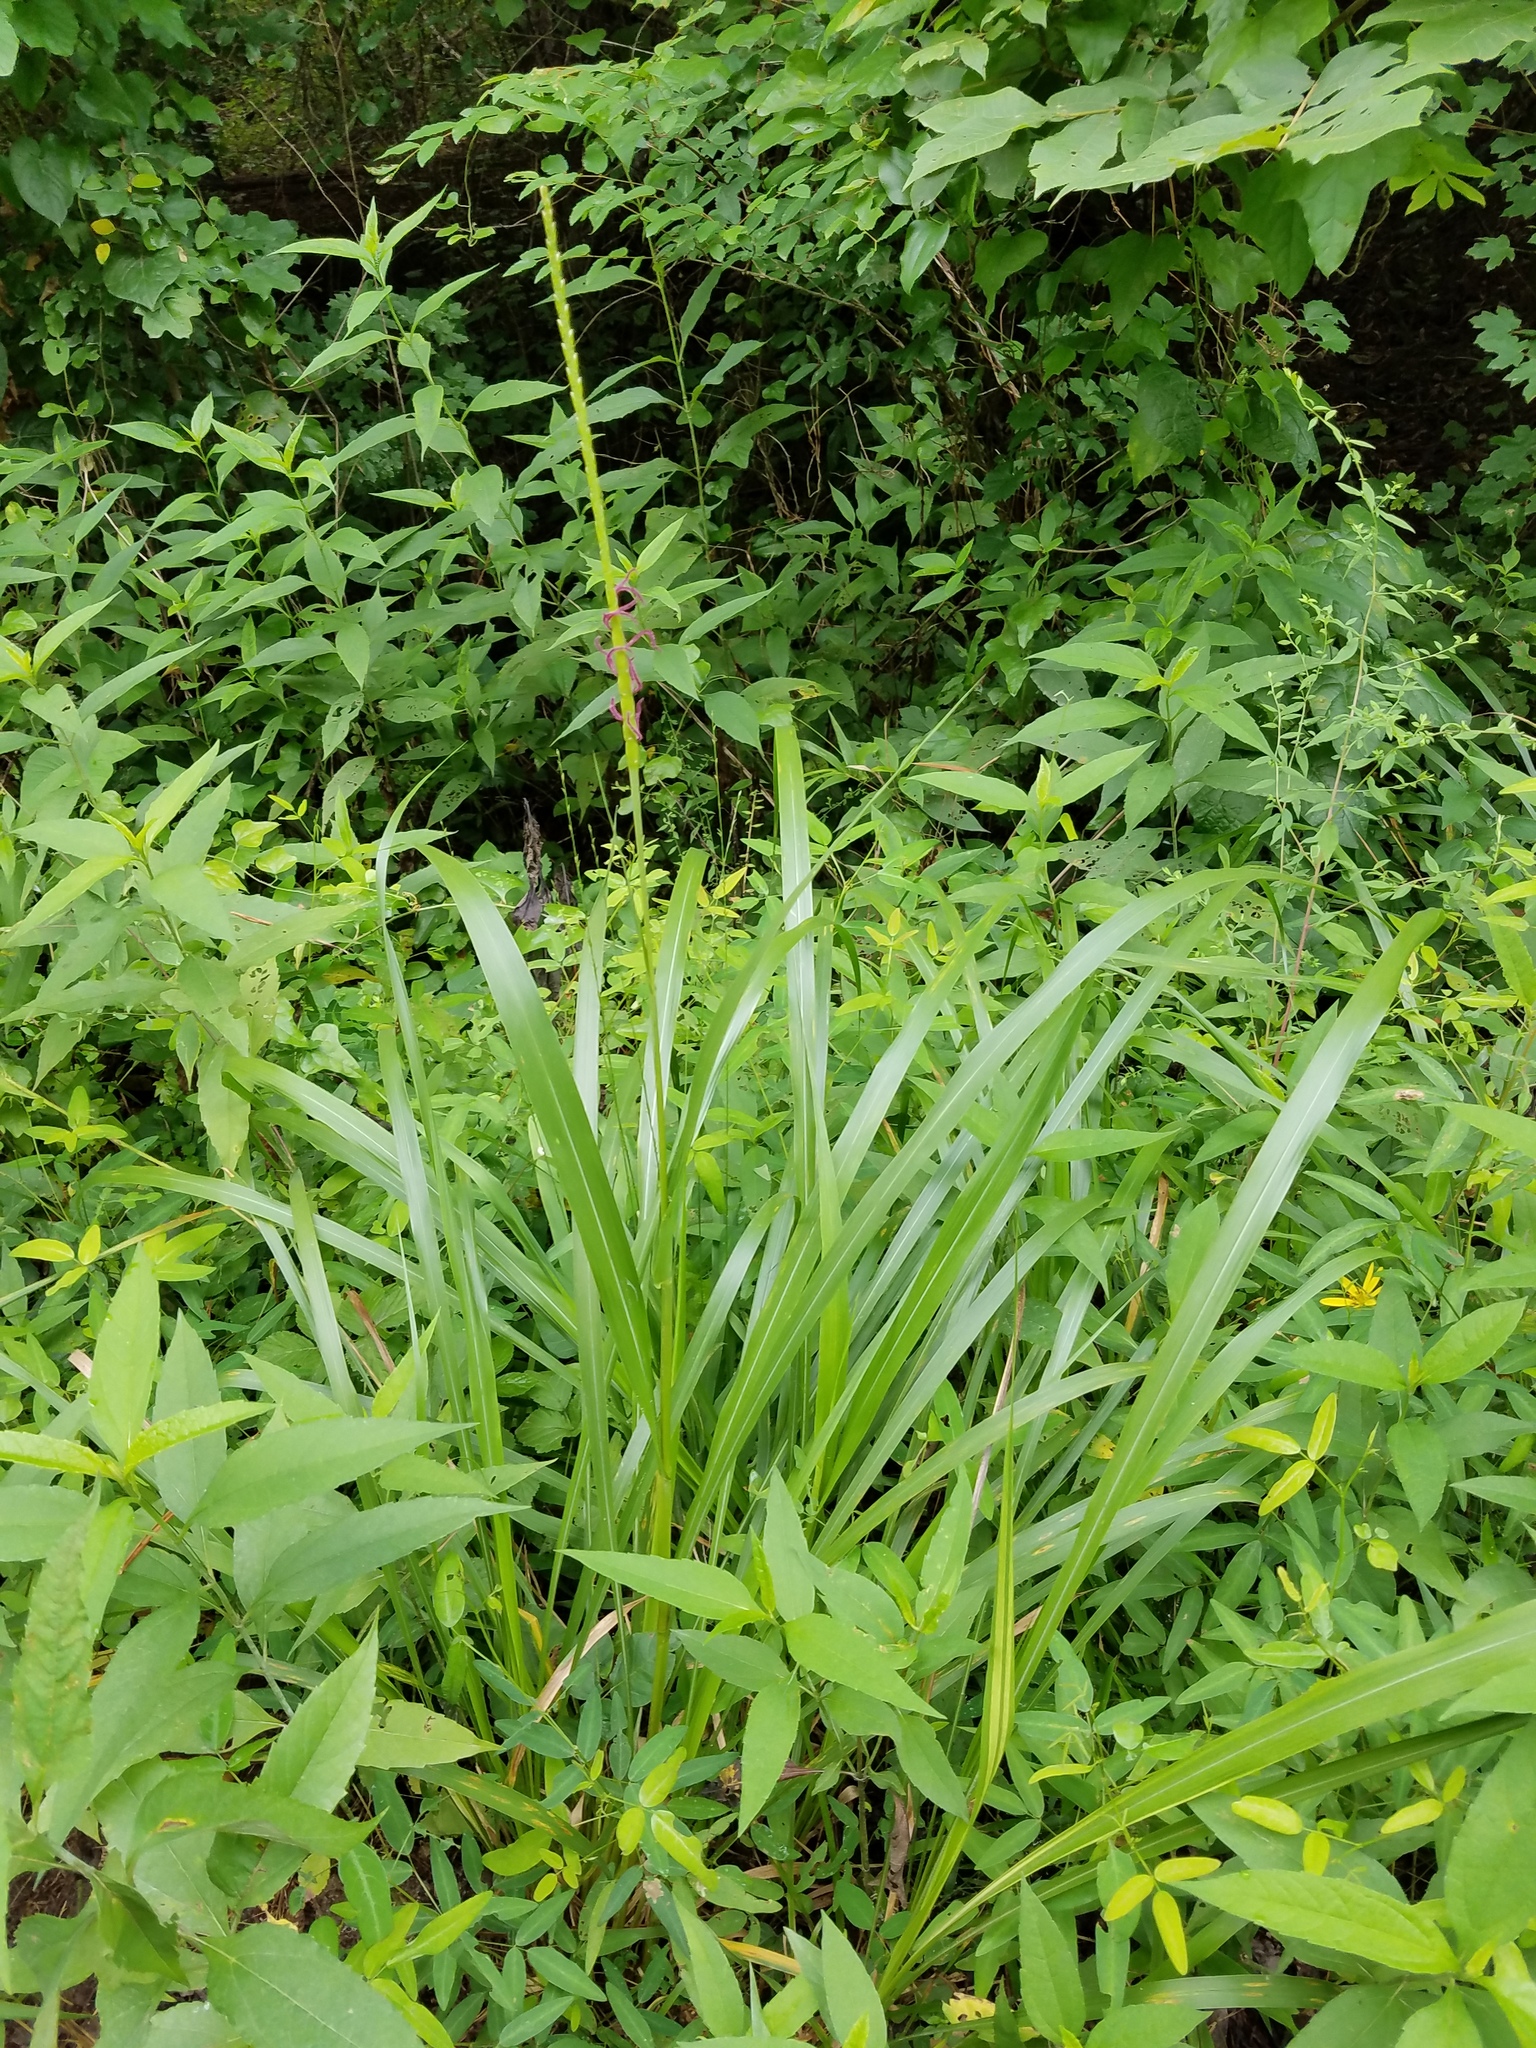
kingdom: Plantae
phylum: Tracheophyta
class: Liliopsida
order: Poales
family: Poaceae
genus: Tripsacum
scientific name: Tripsacum dactyloides
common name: Buffalo-grass
